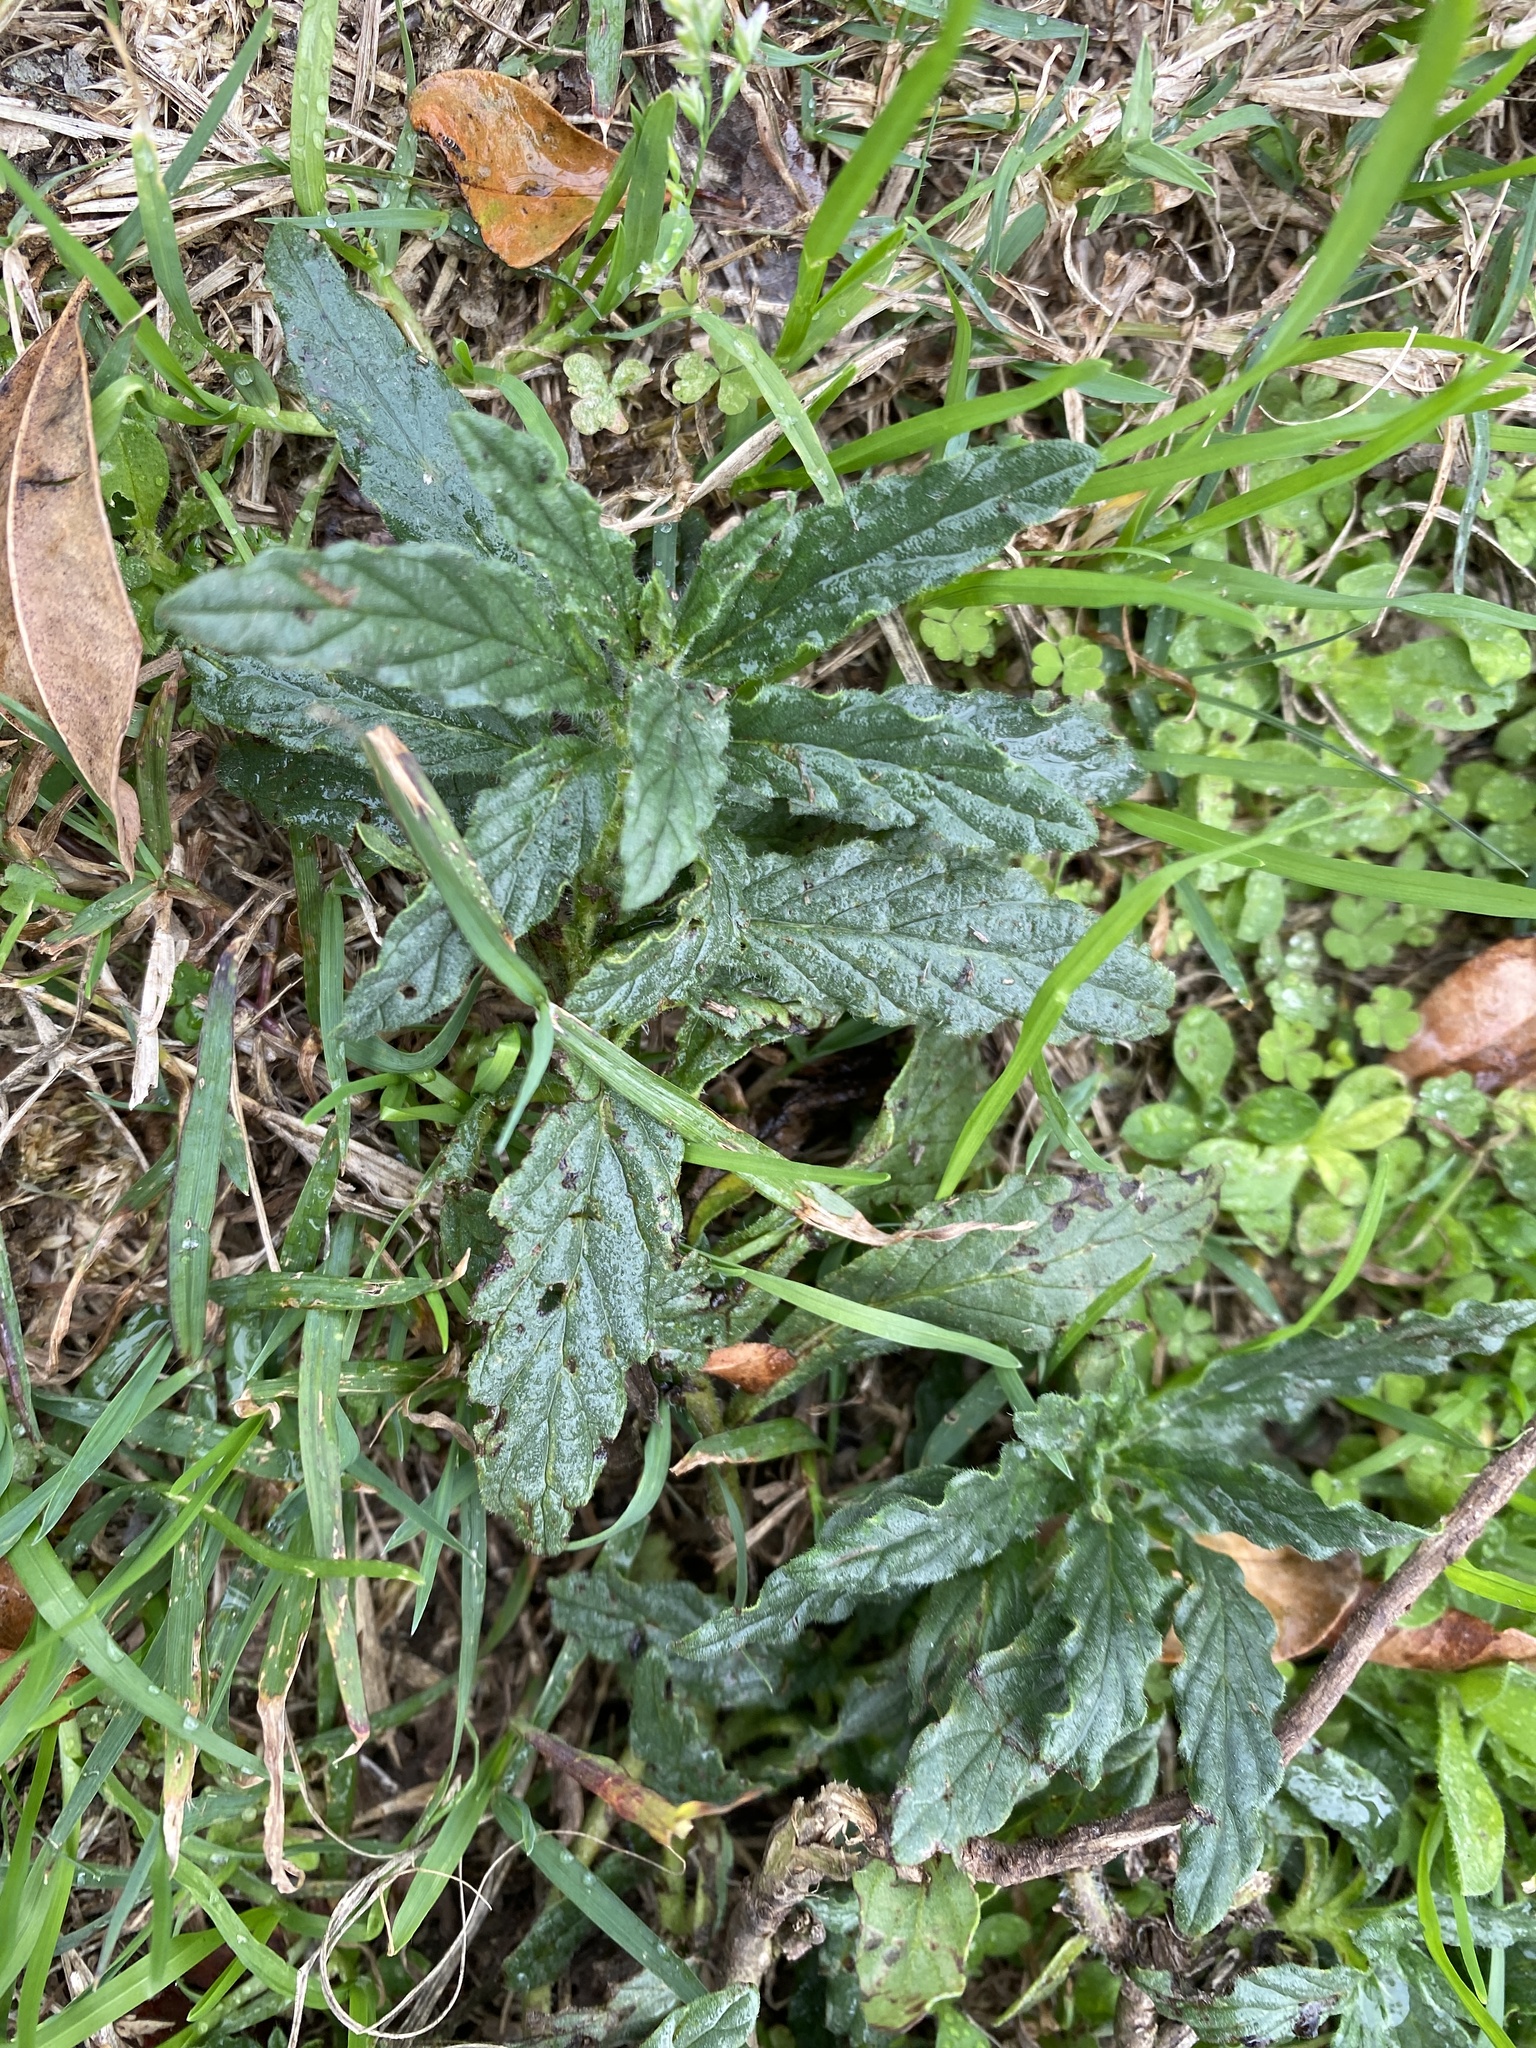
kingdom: Plantae
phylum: Tracheophyta
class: Magnoliopsida
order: Boraginales
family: Heliotropiaceae
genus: Heliotropium
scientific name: Heliotropium amplexicaule
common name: Clasping heliotrope
